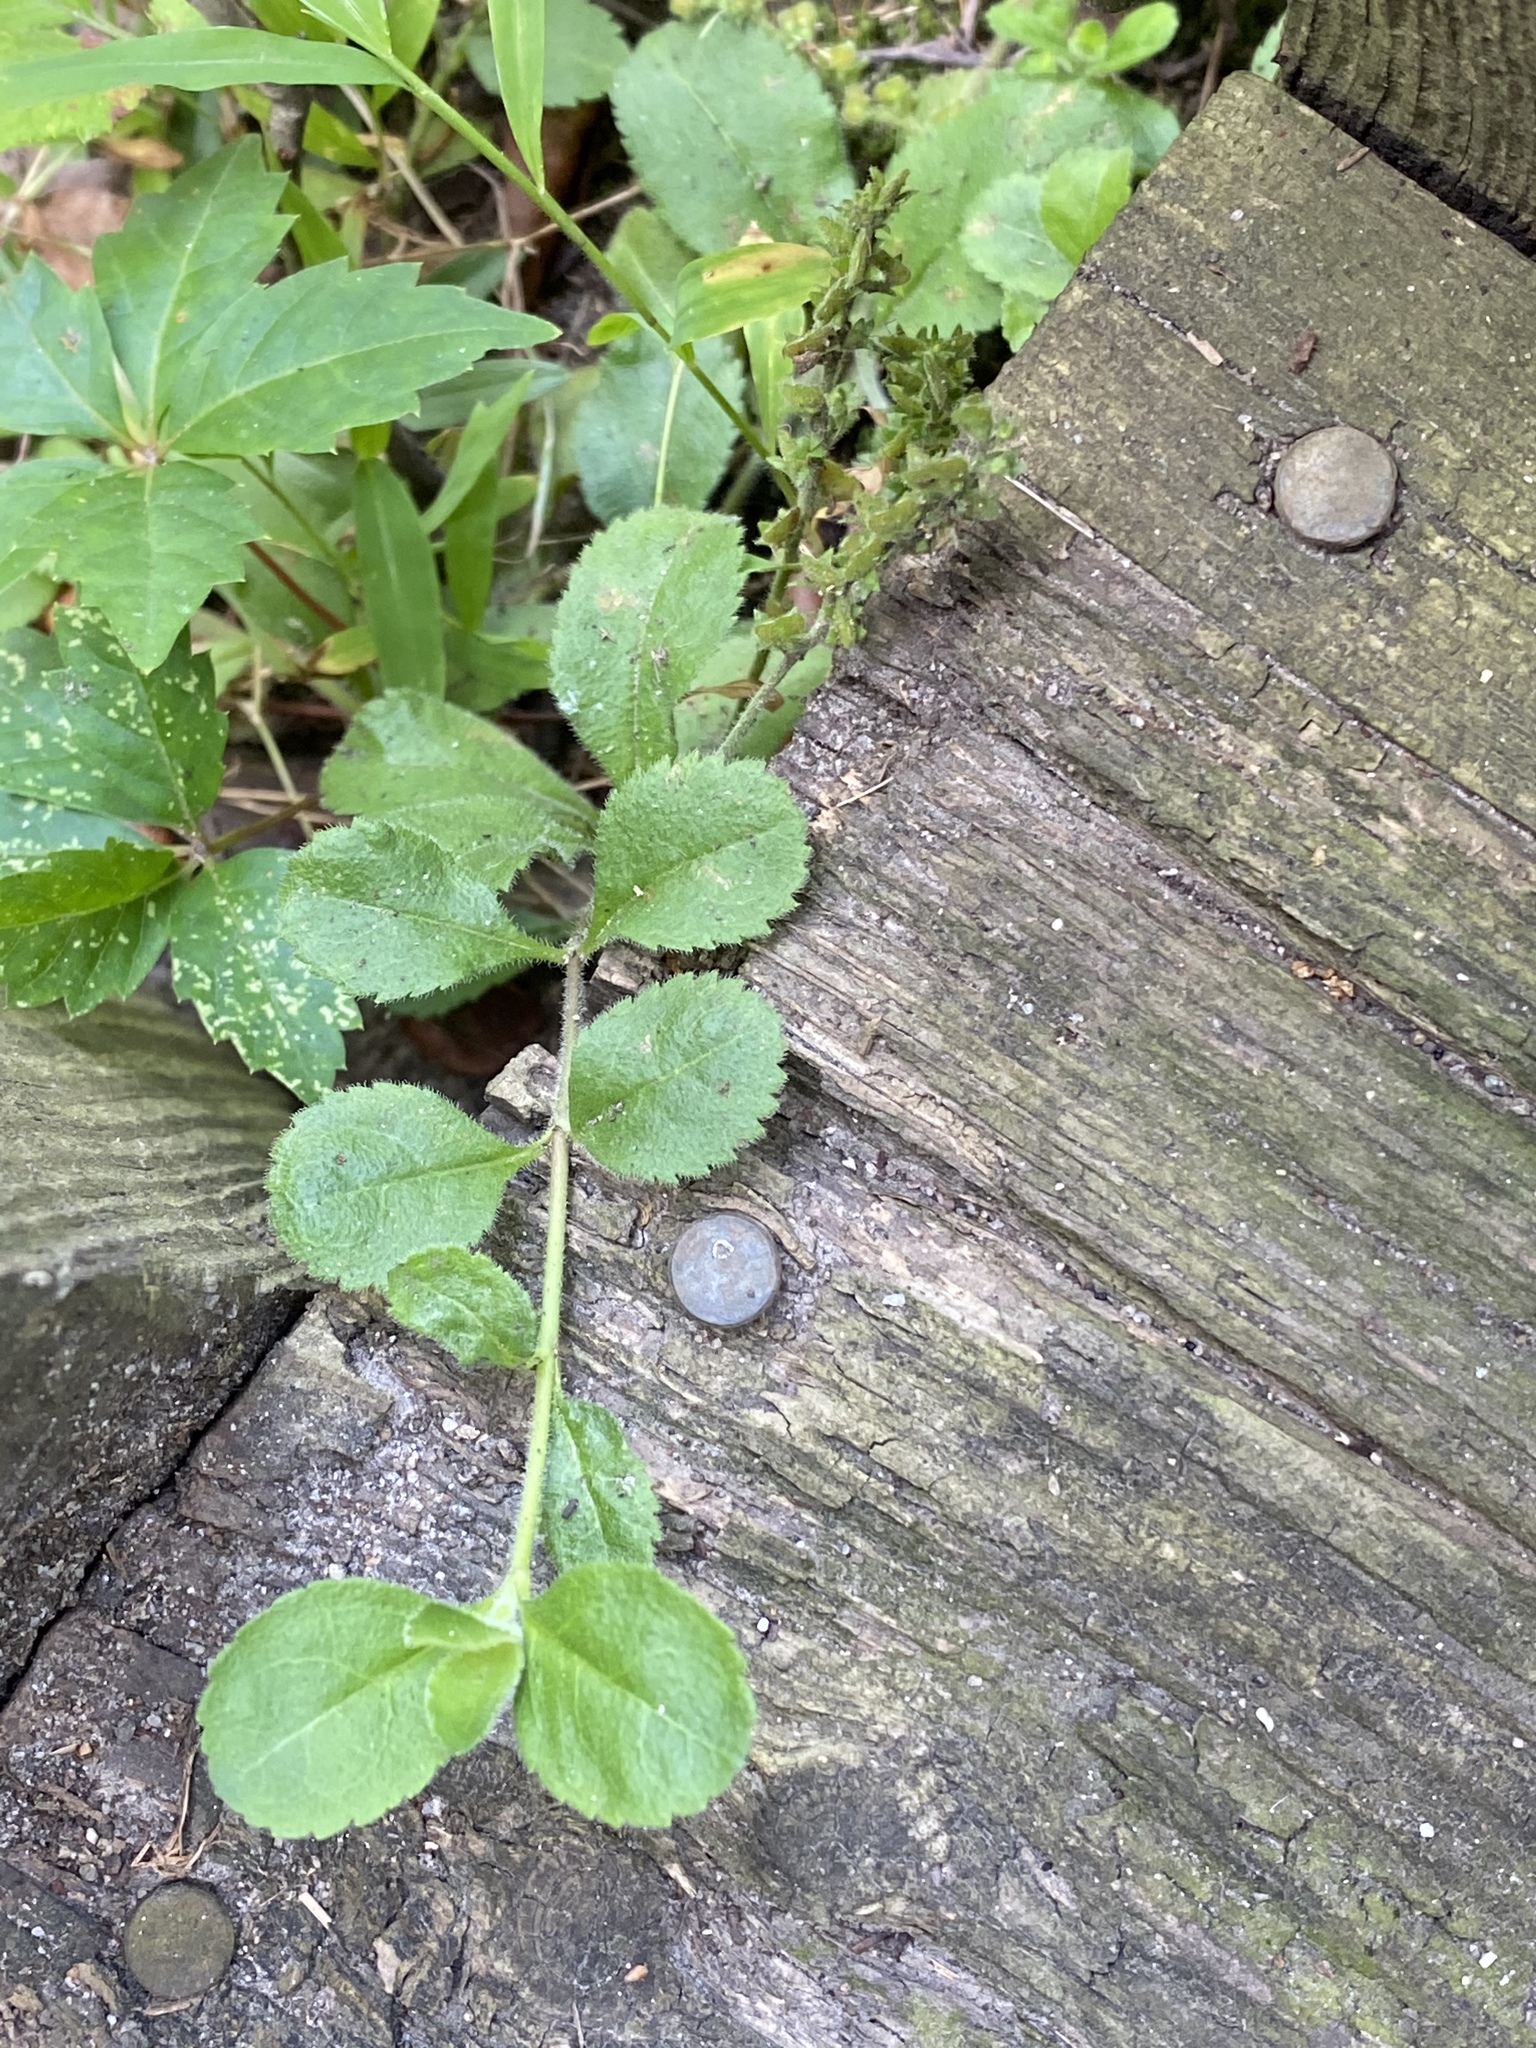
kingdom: Plantae
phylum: Tracheophyta
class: Magnoliopsida
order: Lamiales
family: Plantaginaceae
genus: Veronica
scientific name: Veronica officinalis
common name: Common speedwell
